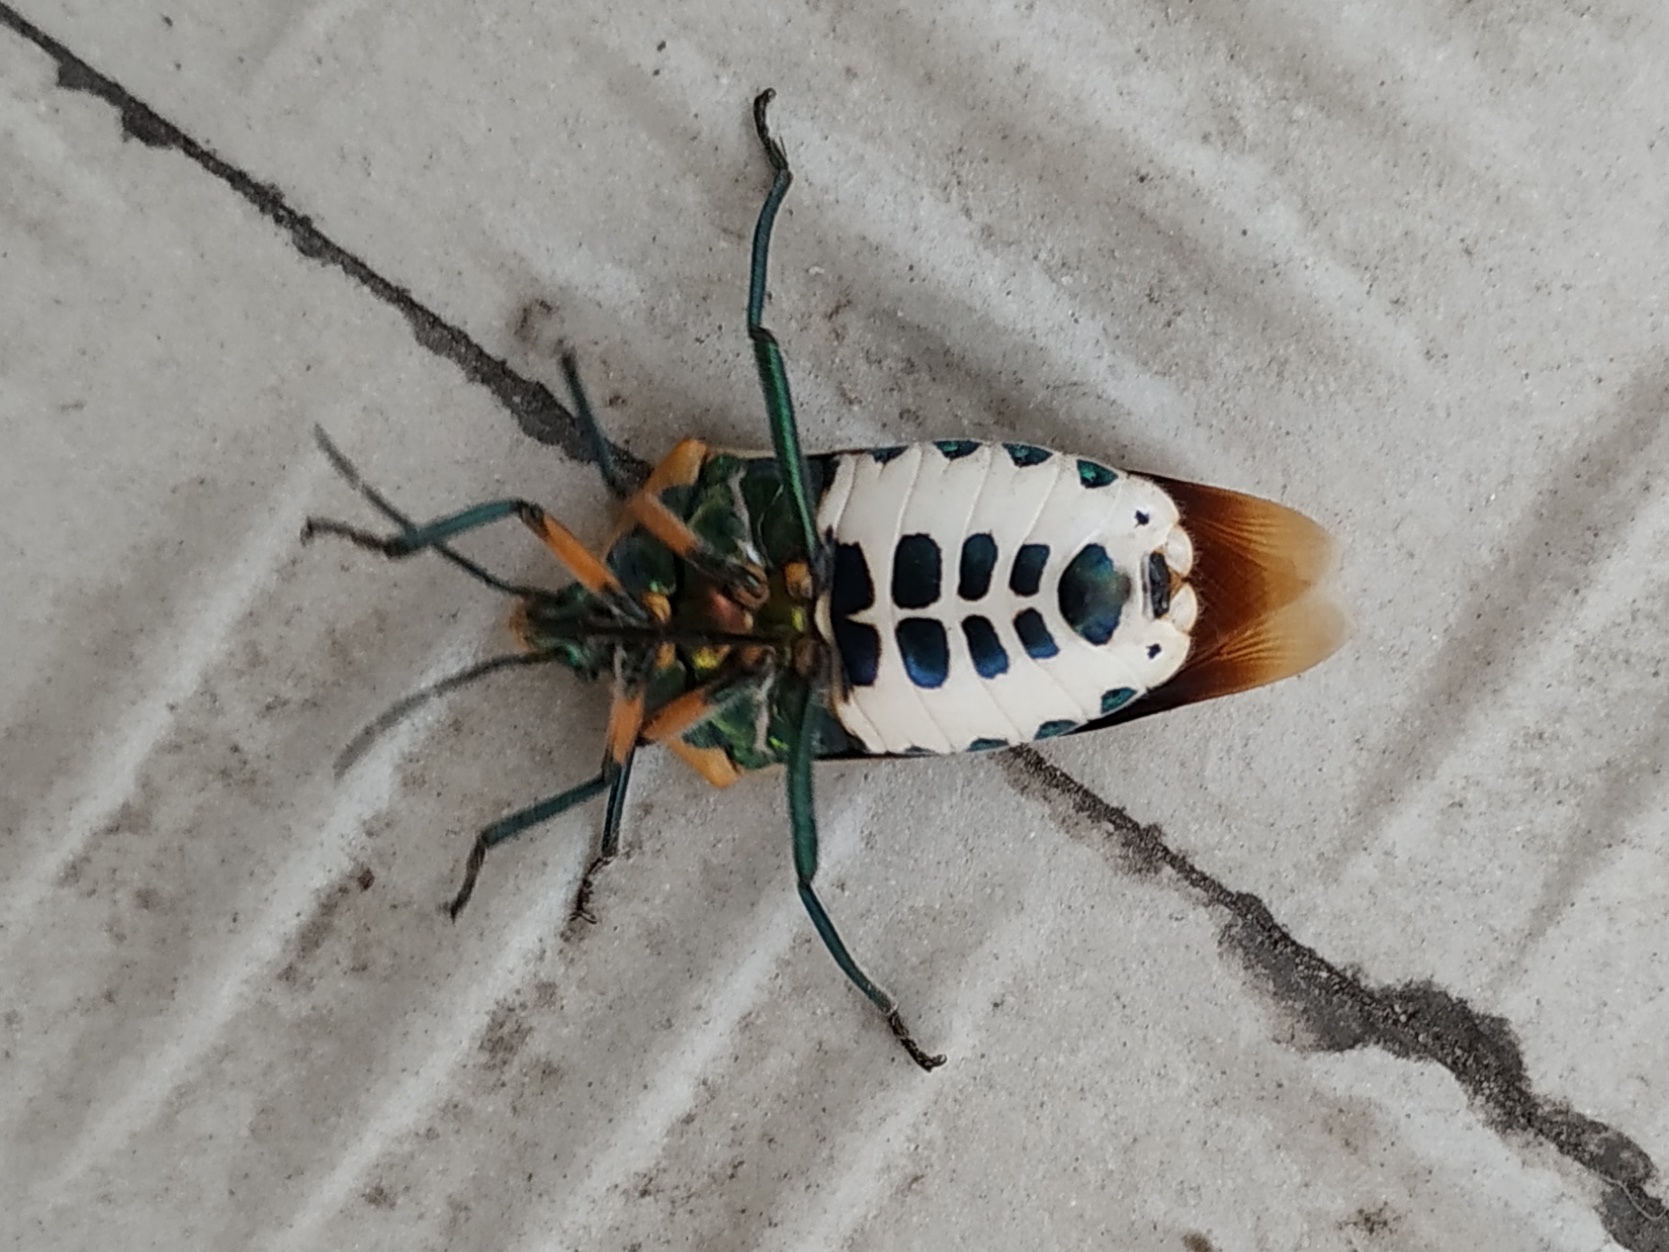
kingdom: Animalia
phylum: Arthropoda
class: Insecta
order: Hemiptera
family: Scutelleridae
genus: Cantao
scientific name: Cantao ocellatus
